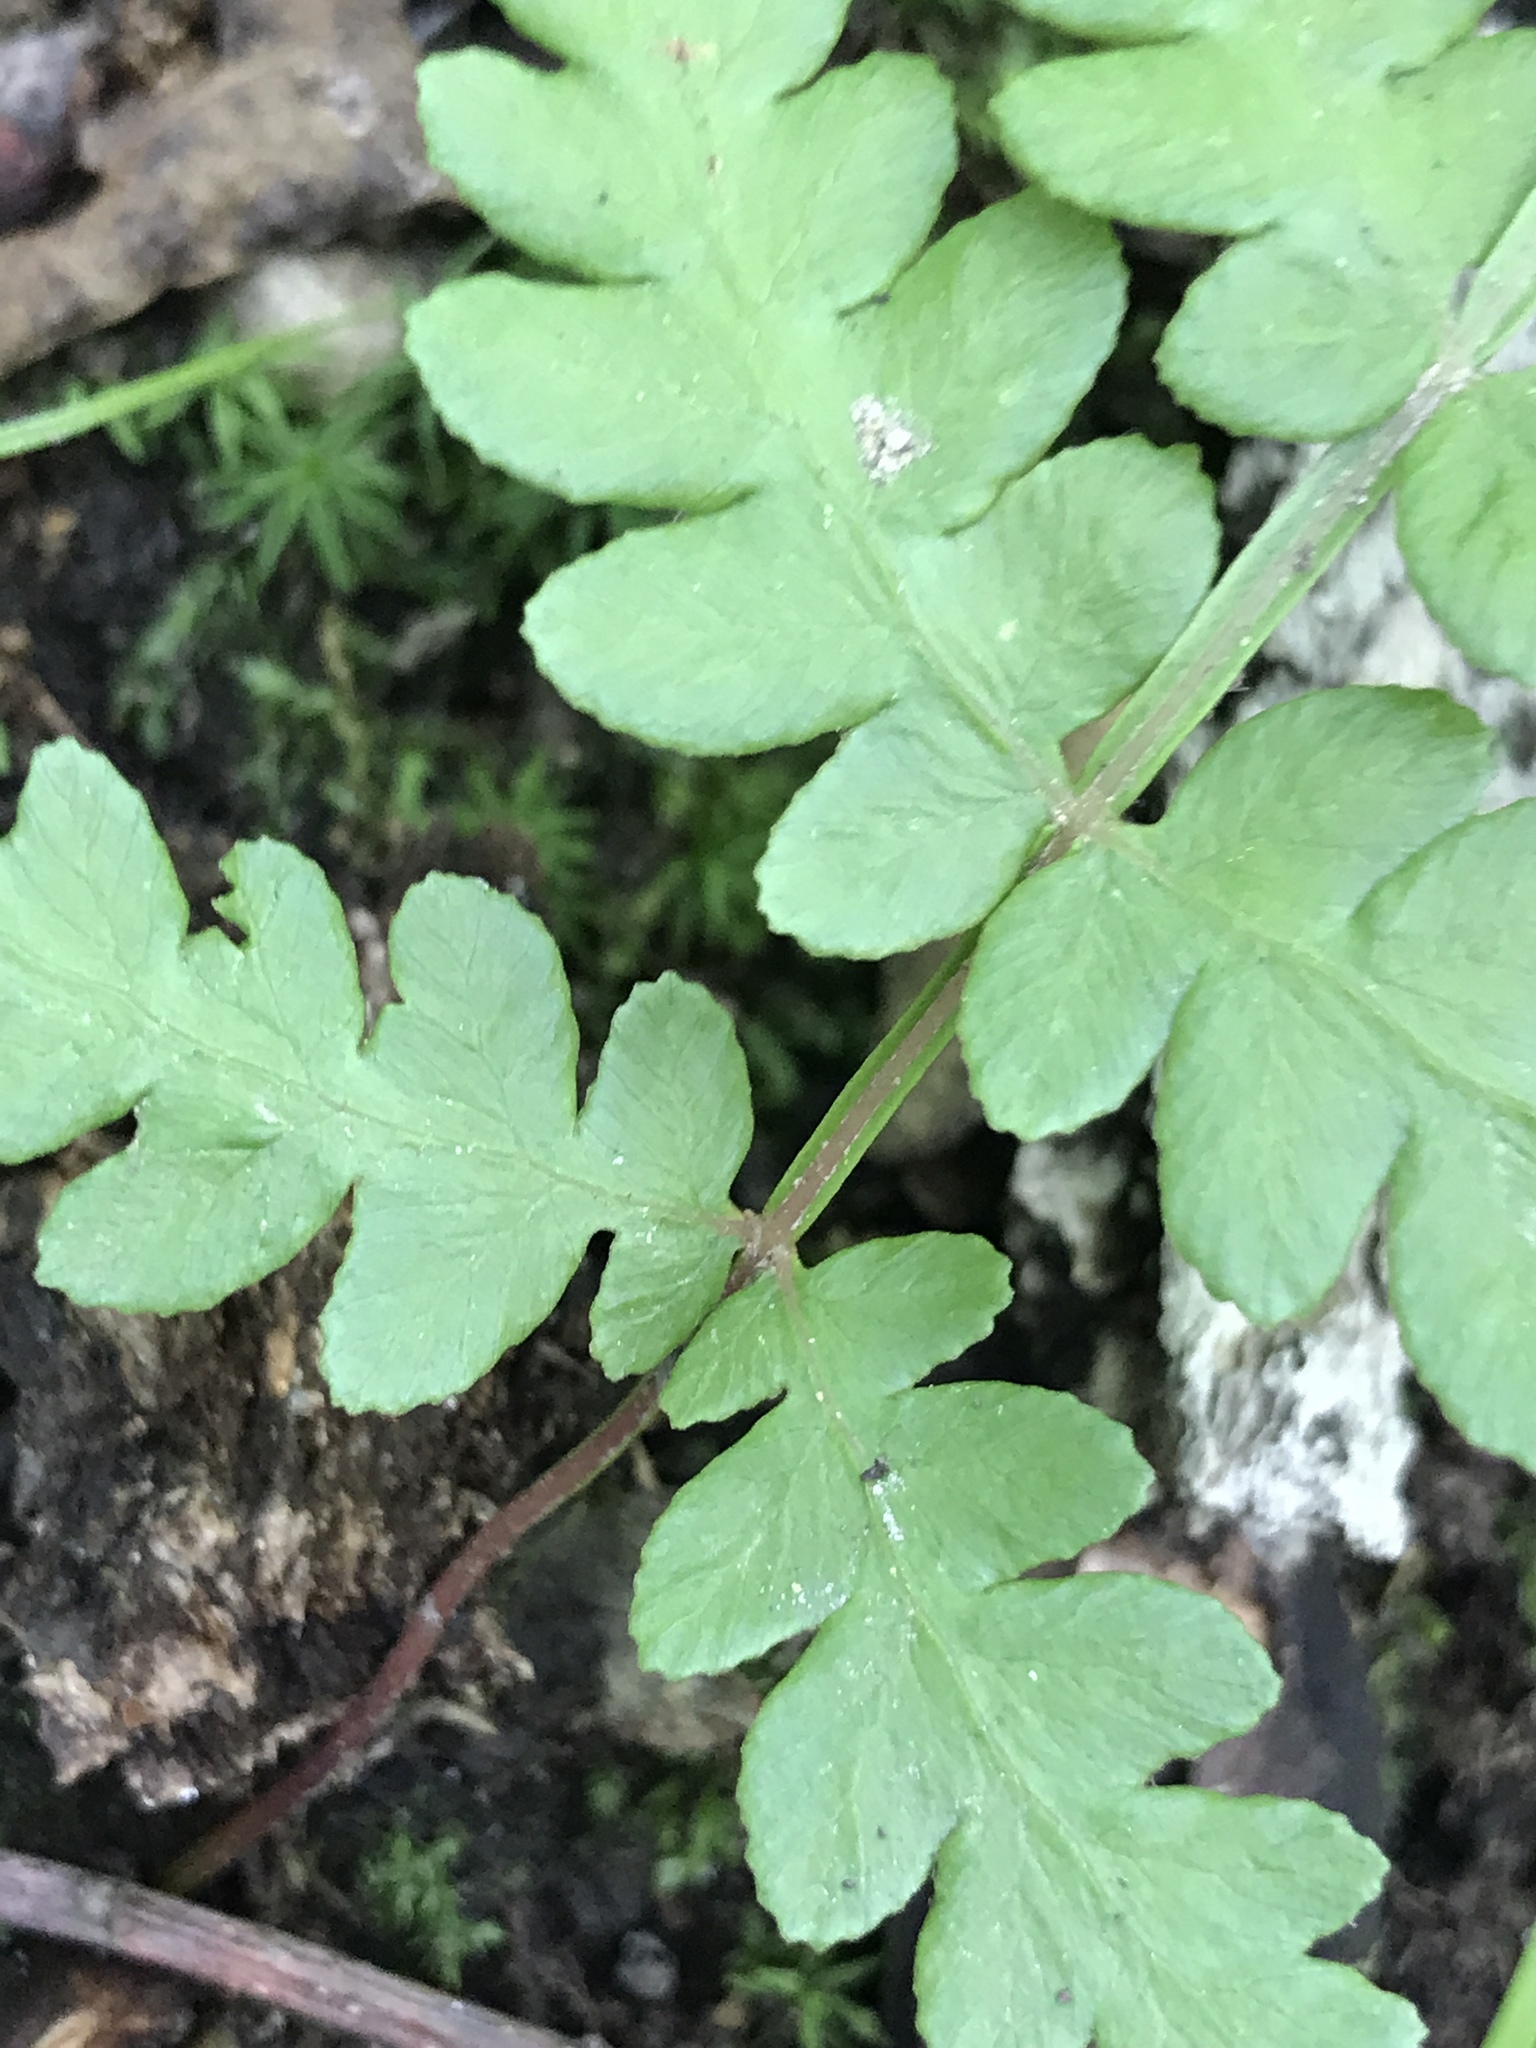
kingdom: Plantae
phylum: Tracheophyta
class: Polypodiopsida
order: Osmundales
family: Osmundaceae
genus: Claytosmunda
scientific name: Claytosmunda claytoniana
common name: Clayton's fern
